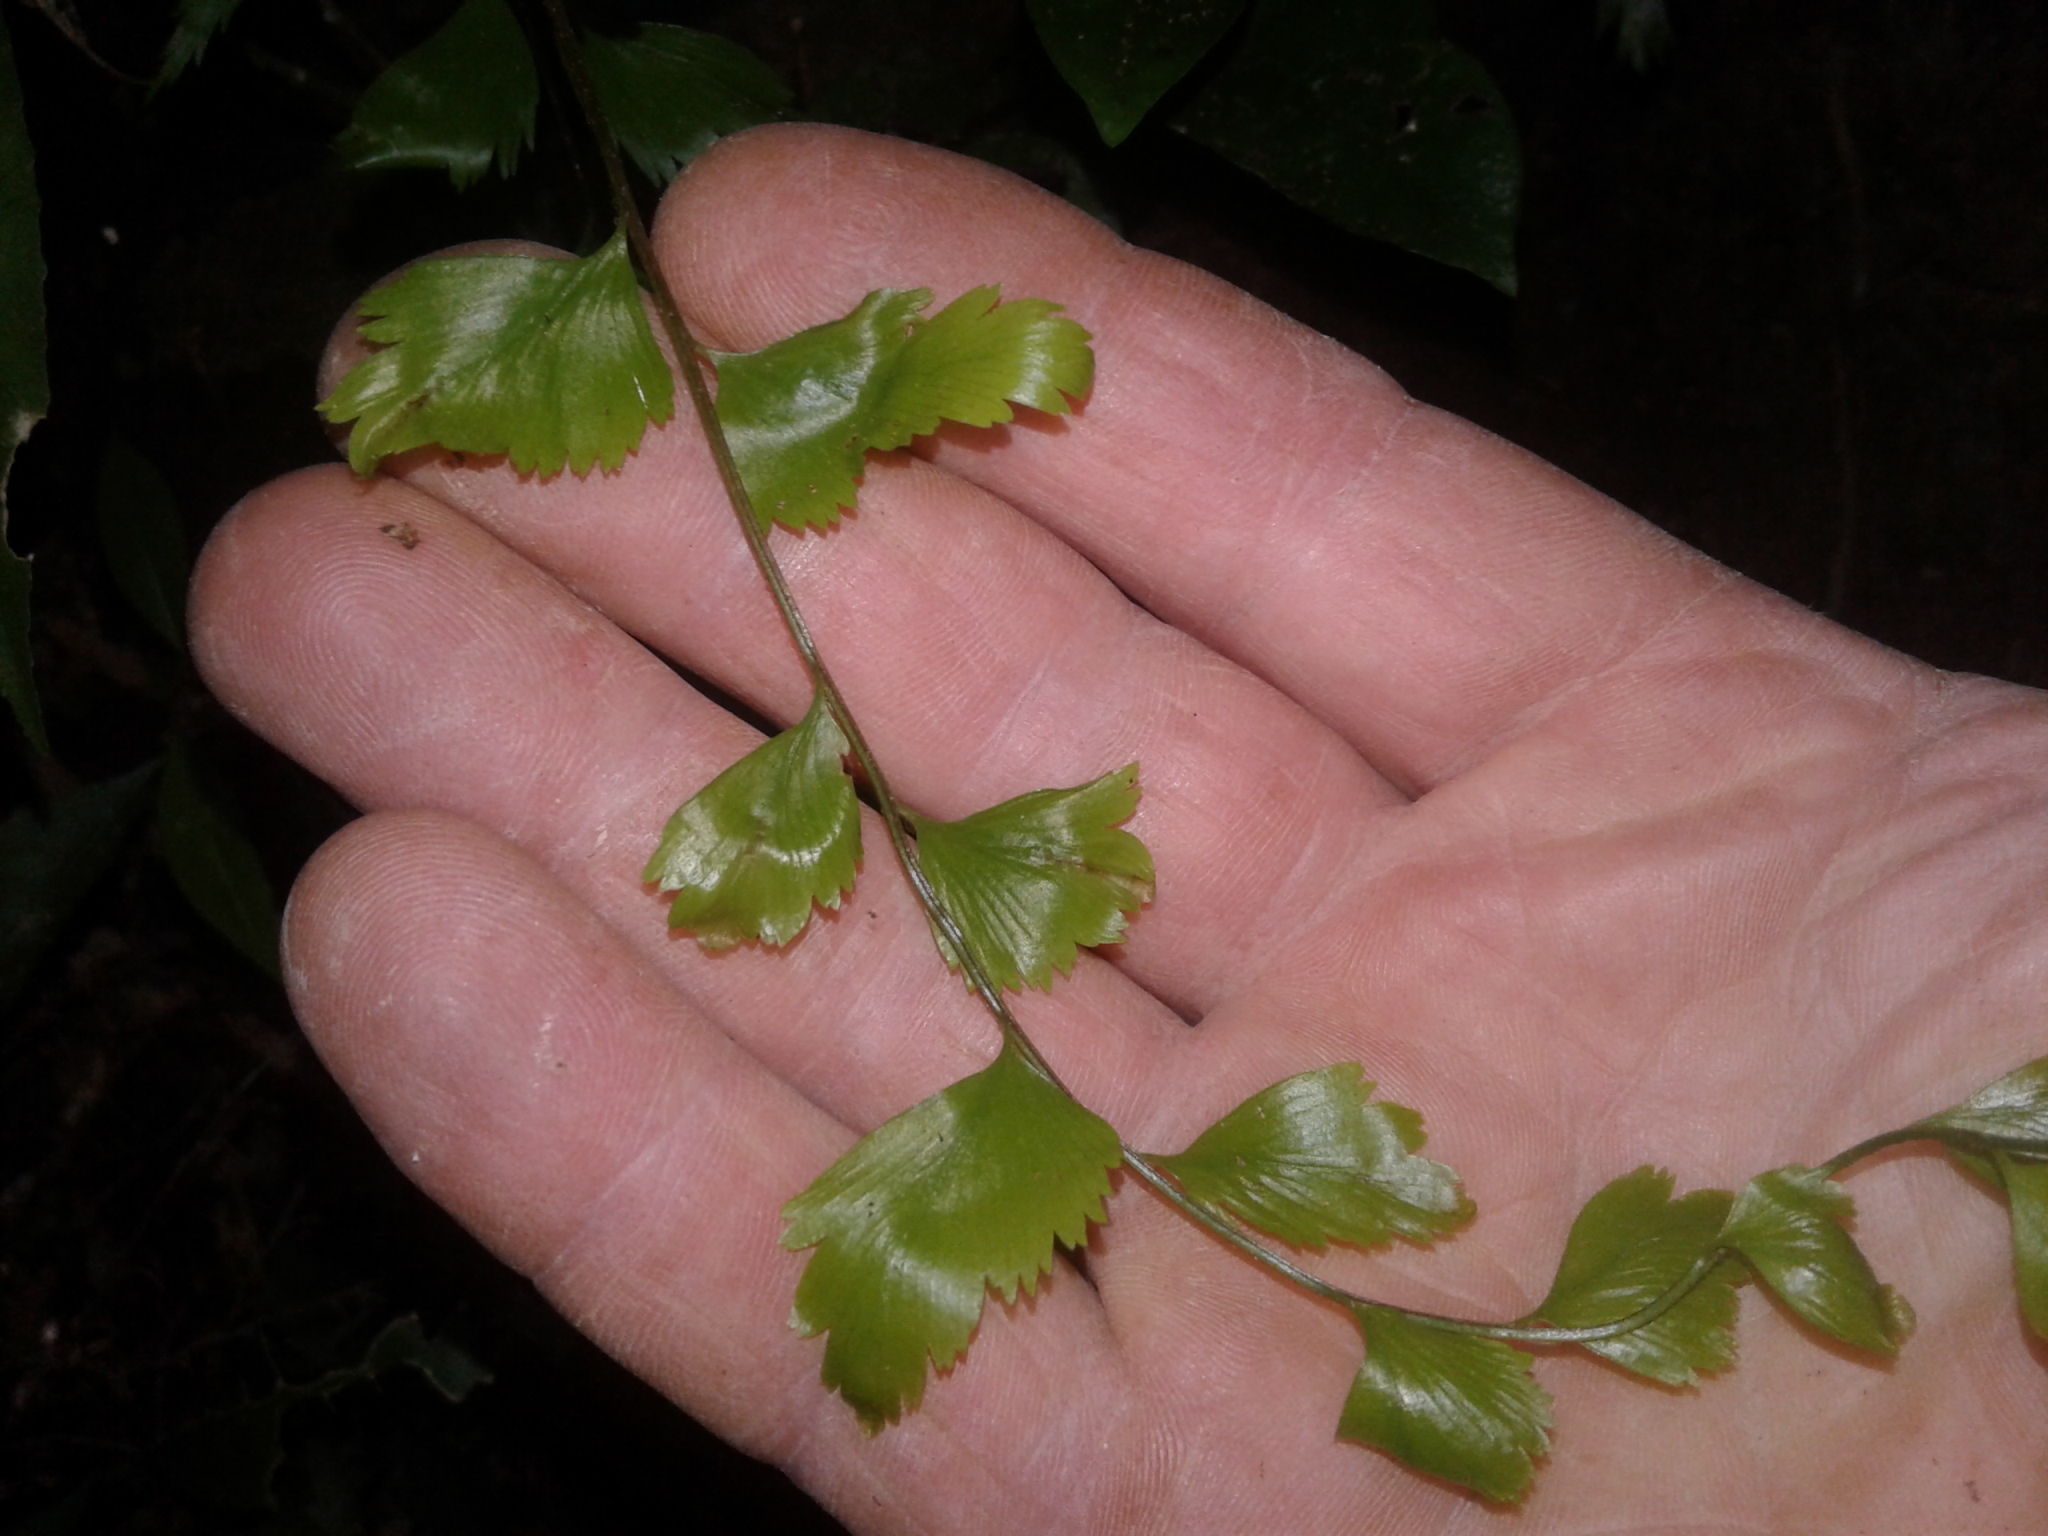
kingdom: Plantae
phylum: Tracheophyta
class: Polypodiopsida
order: Polypodiales
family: Aspleniaceae
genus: Asplenium
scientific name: Asplenium polyodon
